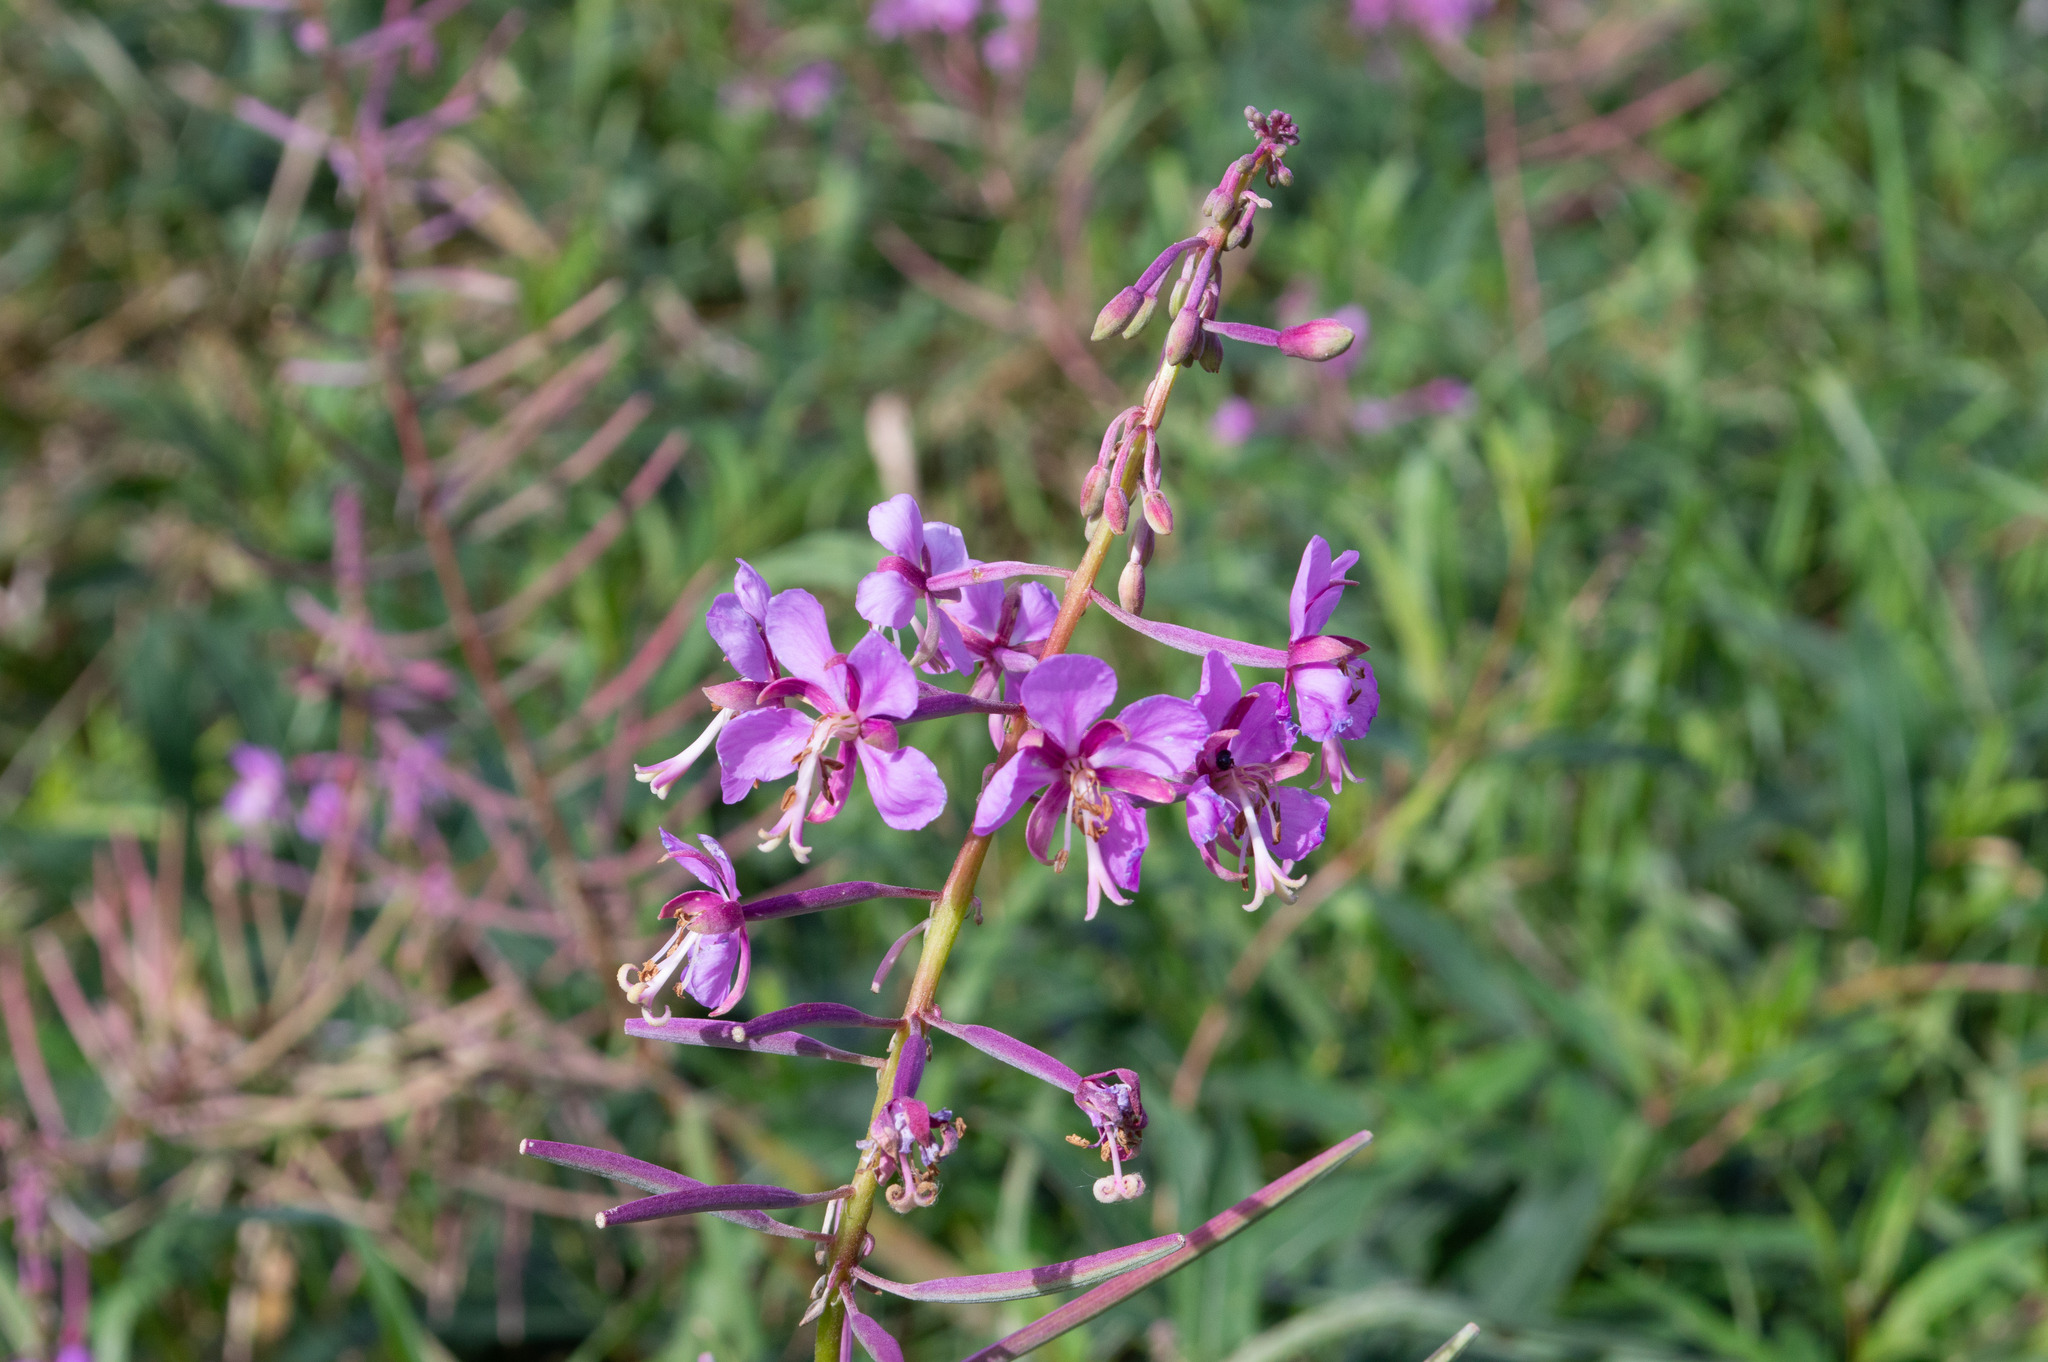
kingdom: Plantae
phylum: Tracheophyta
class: Magnoliopsida
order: Myrtales
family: Onagraceae
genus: Chamaenerion
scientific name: Chamaenerion angustifolium
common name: Fireweed
